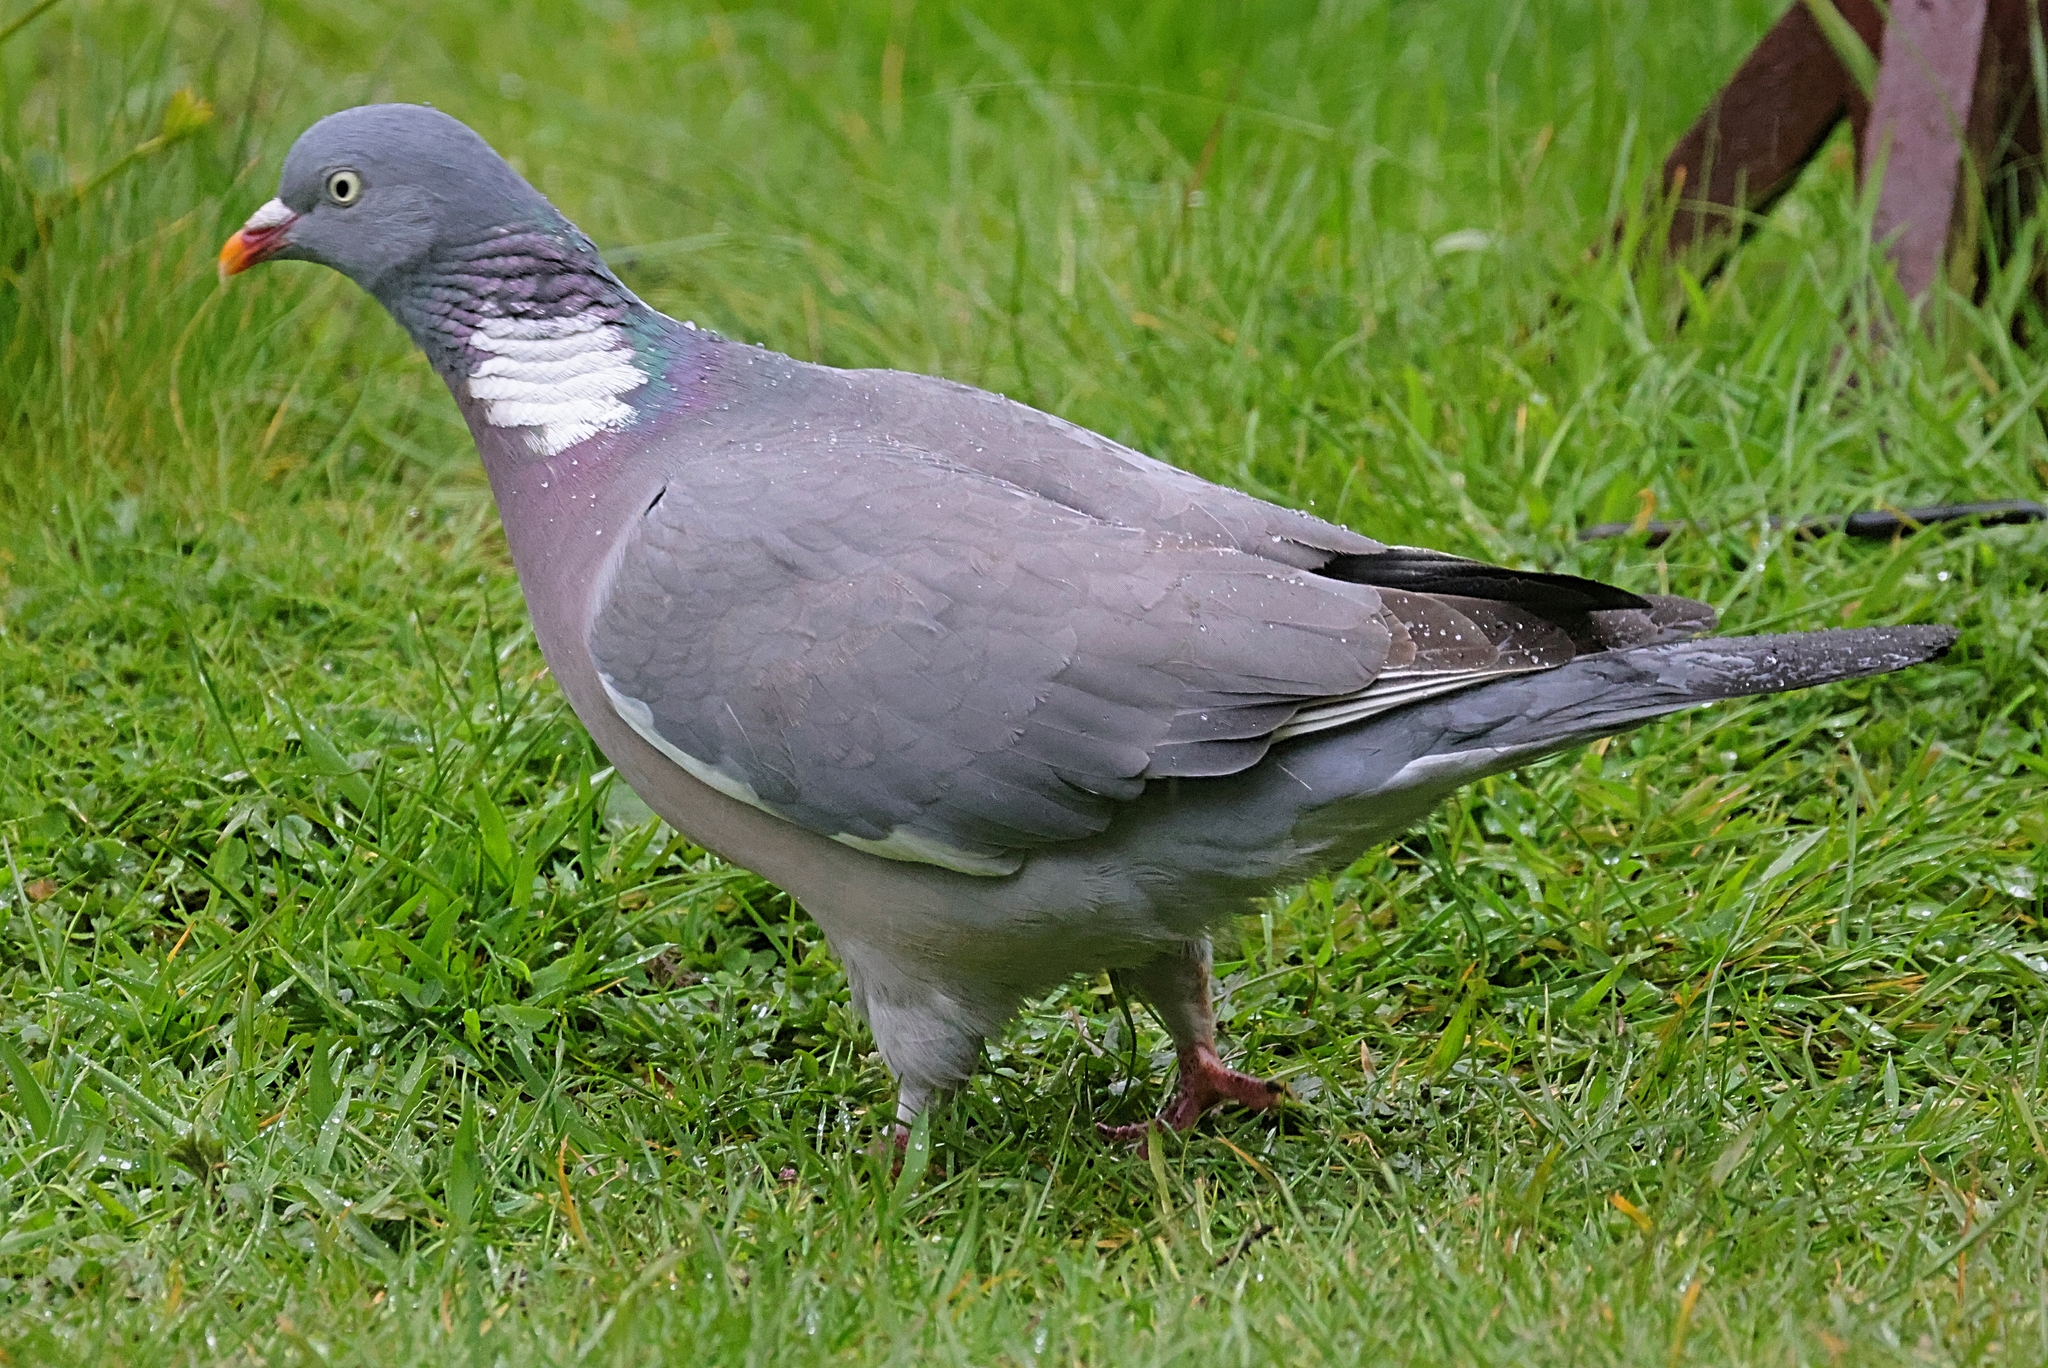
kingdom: Animalia
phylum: Chordata
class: Aves
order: Columbiformes
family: Columbidae
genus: Columba
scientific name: Columba palumbus
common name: Common wood pigeon
